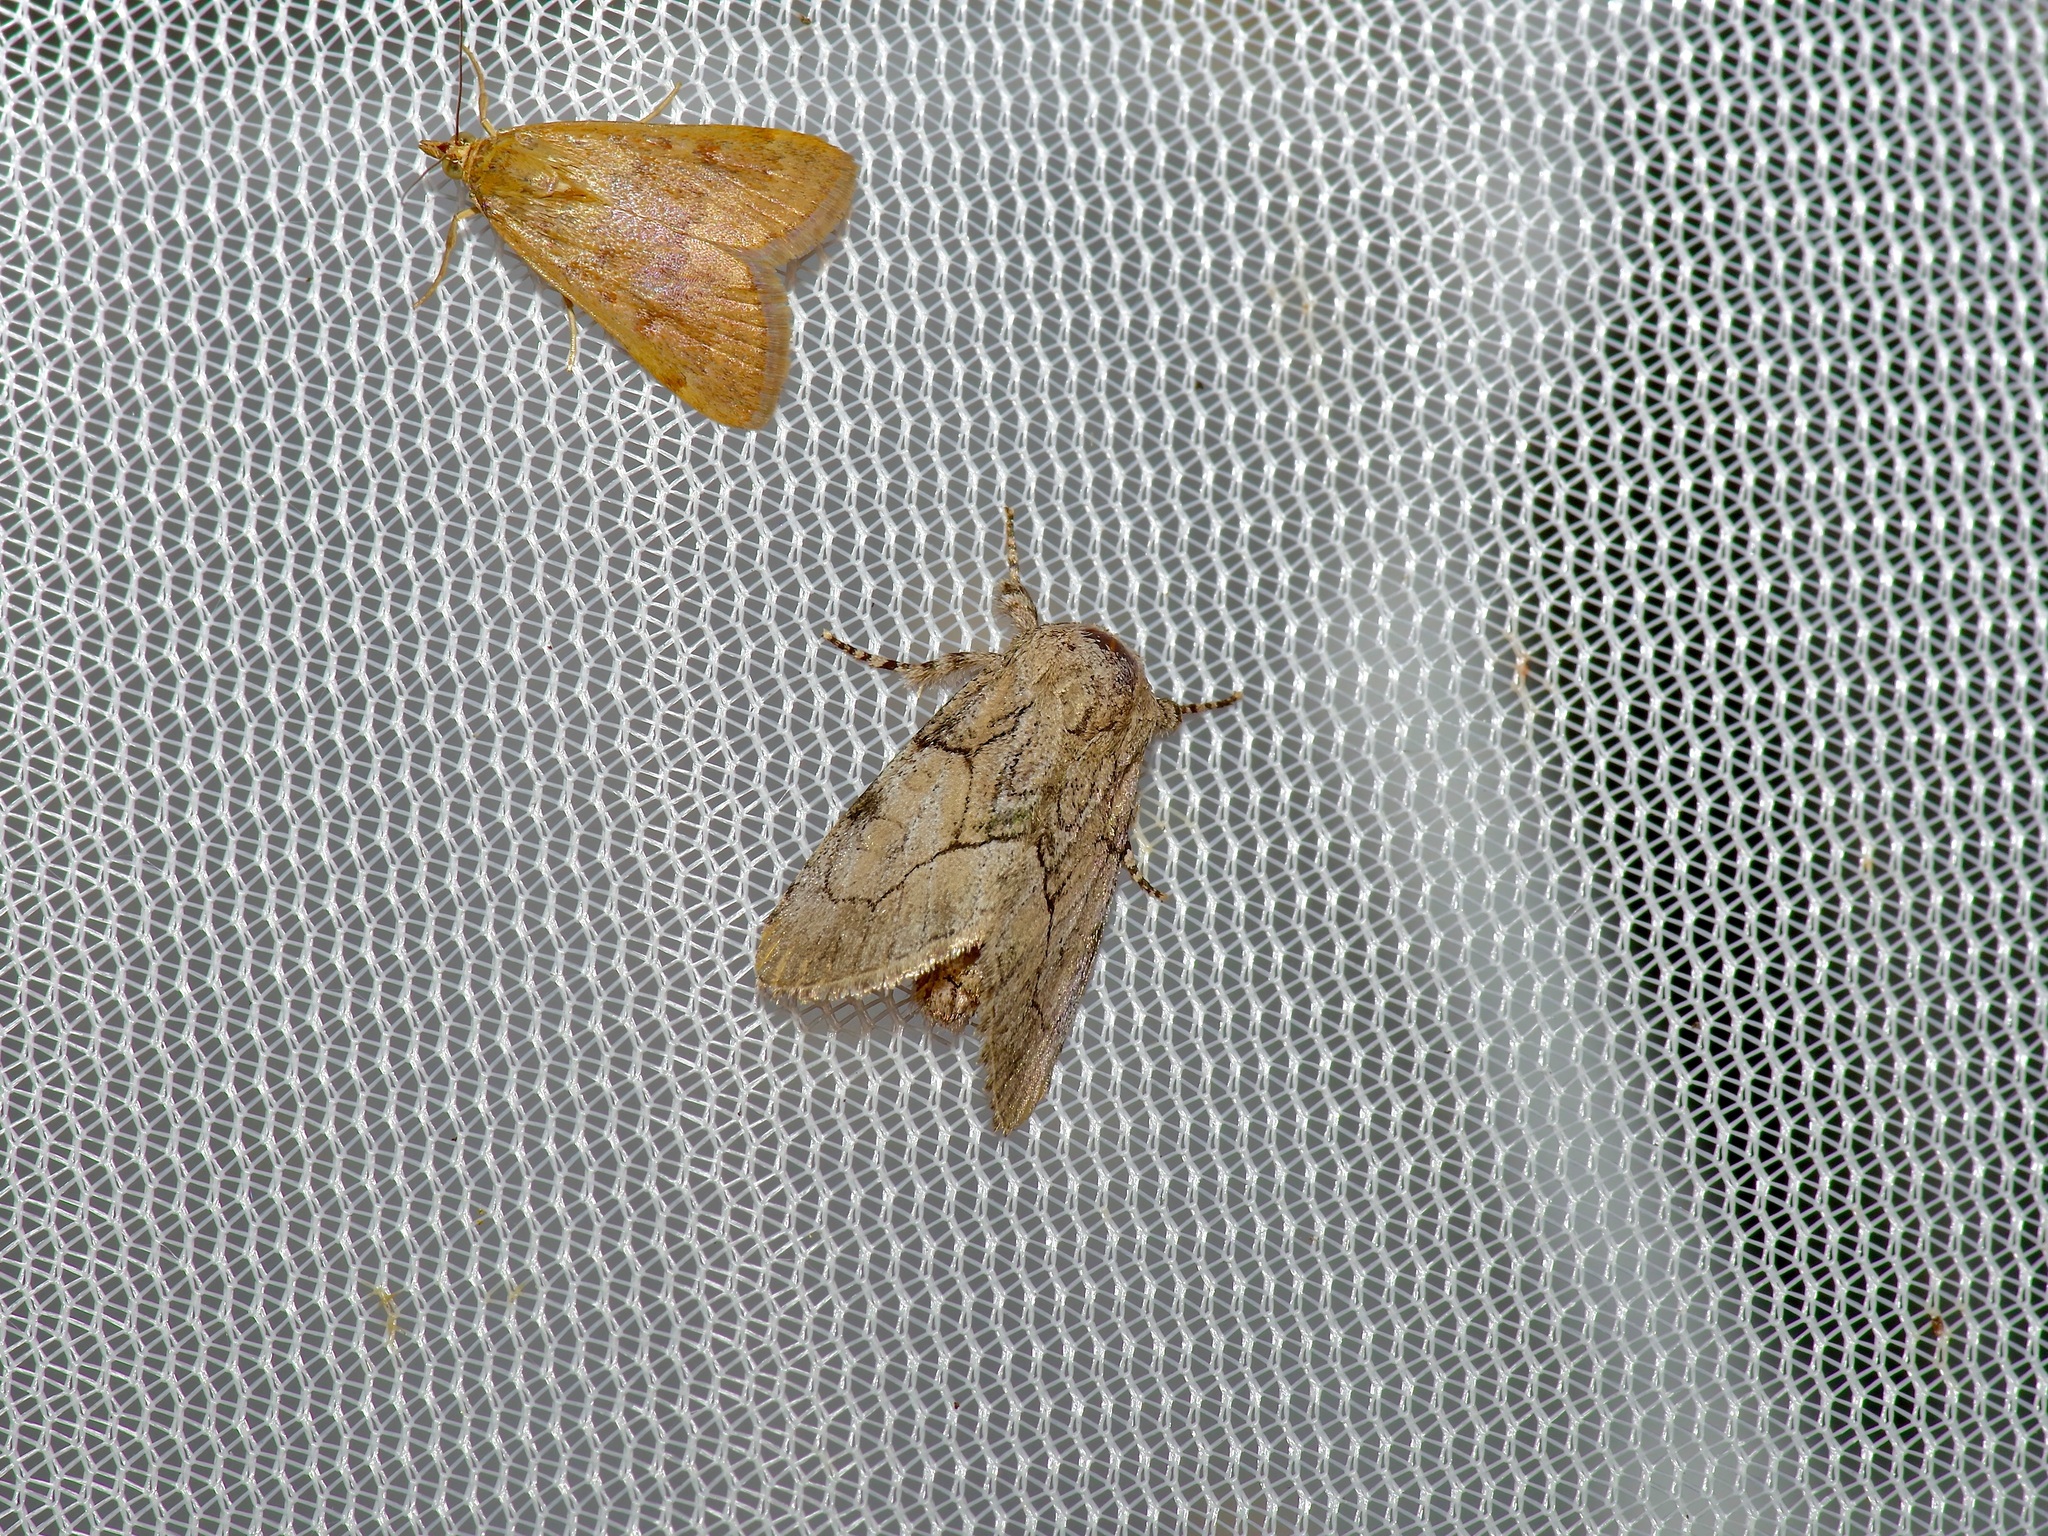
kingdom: Animalia
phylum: Arthropoda
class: Insecta
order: Lepidoptera
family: Noctuidae
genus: Raphia
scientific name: Raphia frater
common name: Brother
